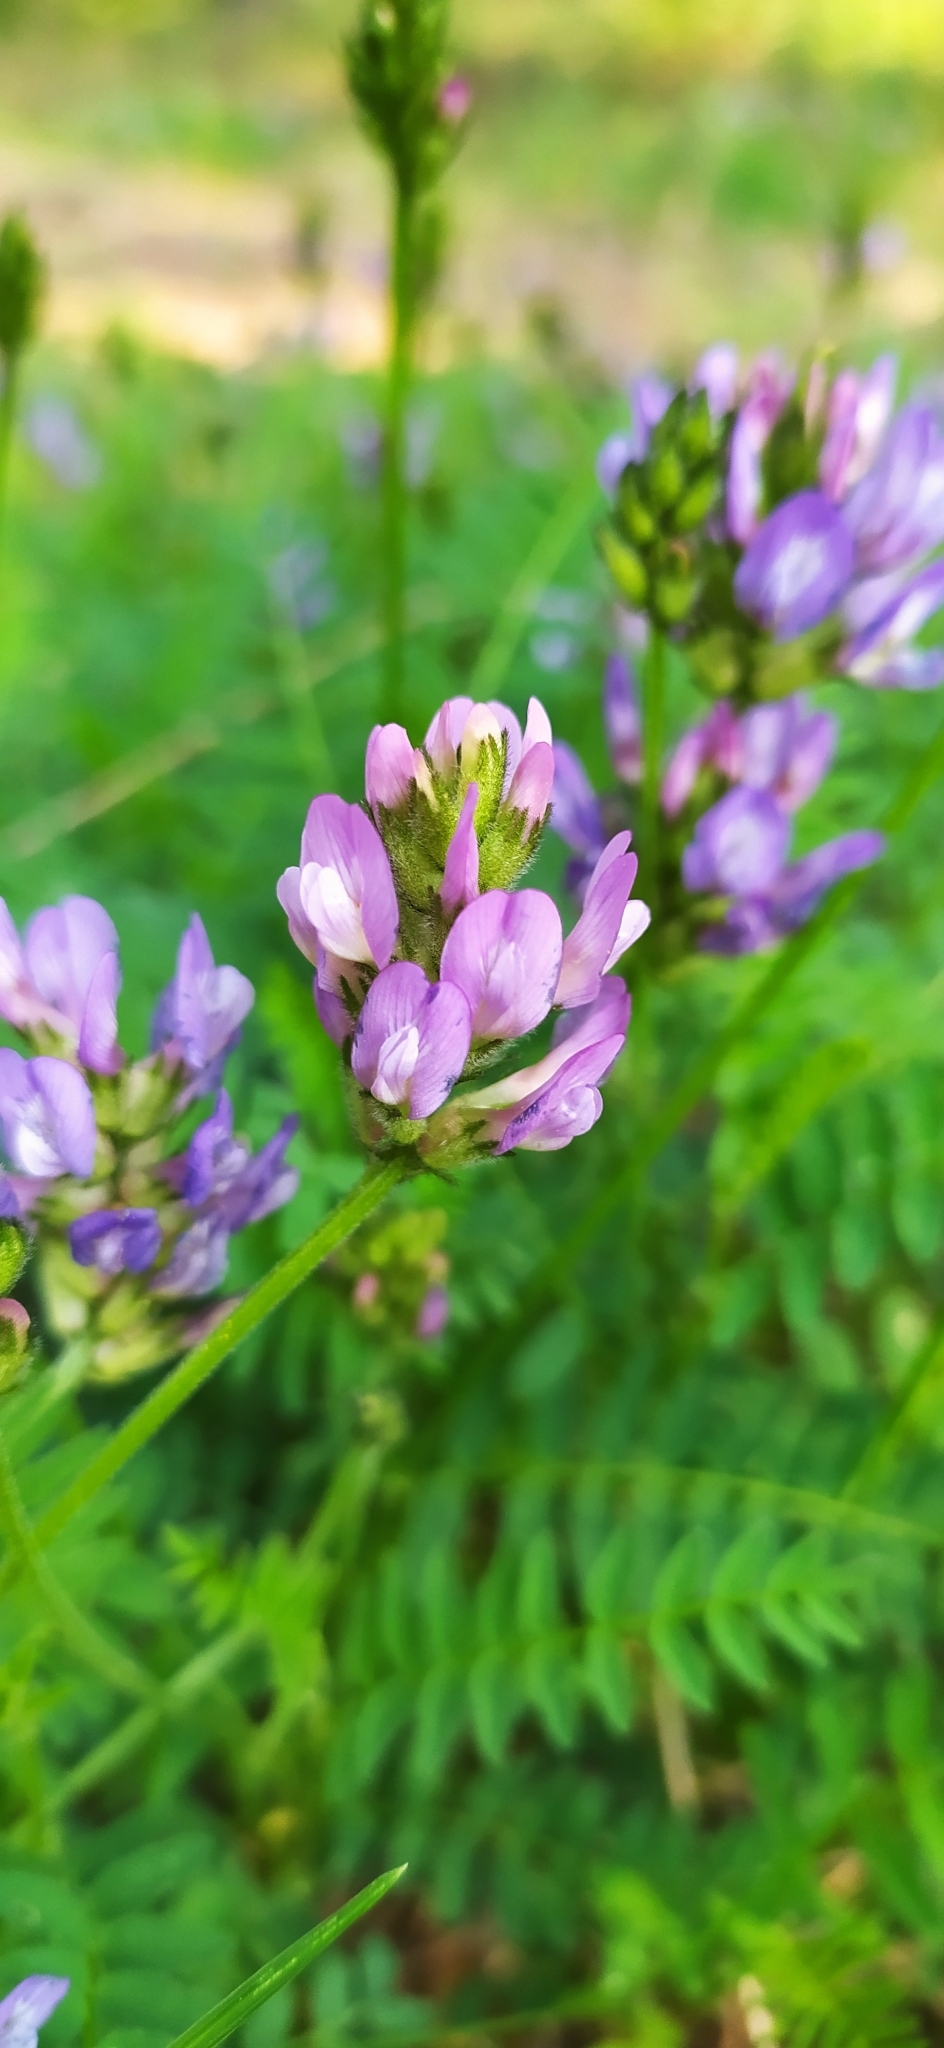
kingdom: Plantae
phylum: Tracheophyta
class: Magnoliopsida
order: Fabales
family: Fabaceae
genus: Astragalus
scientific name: Astragalus danicus
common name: Purple milk-vetch
